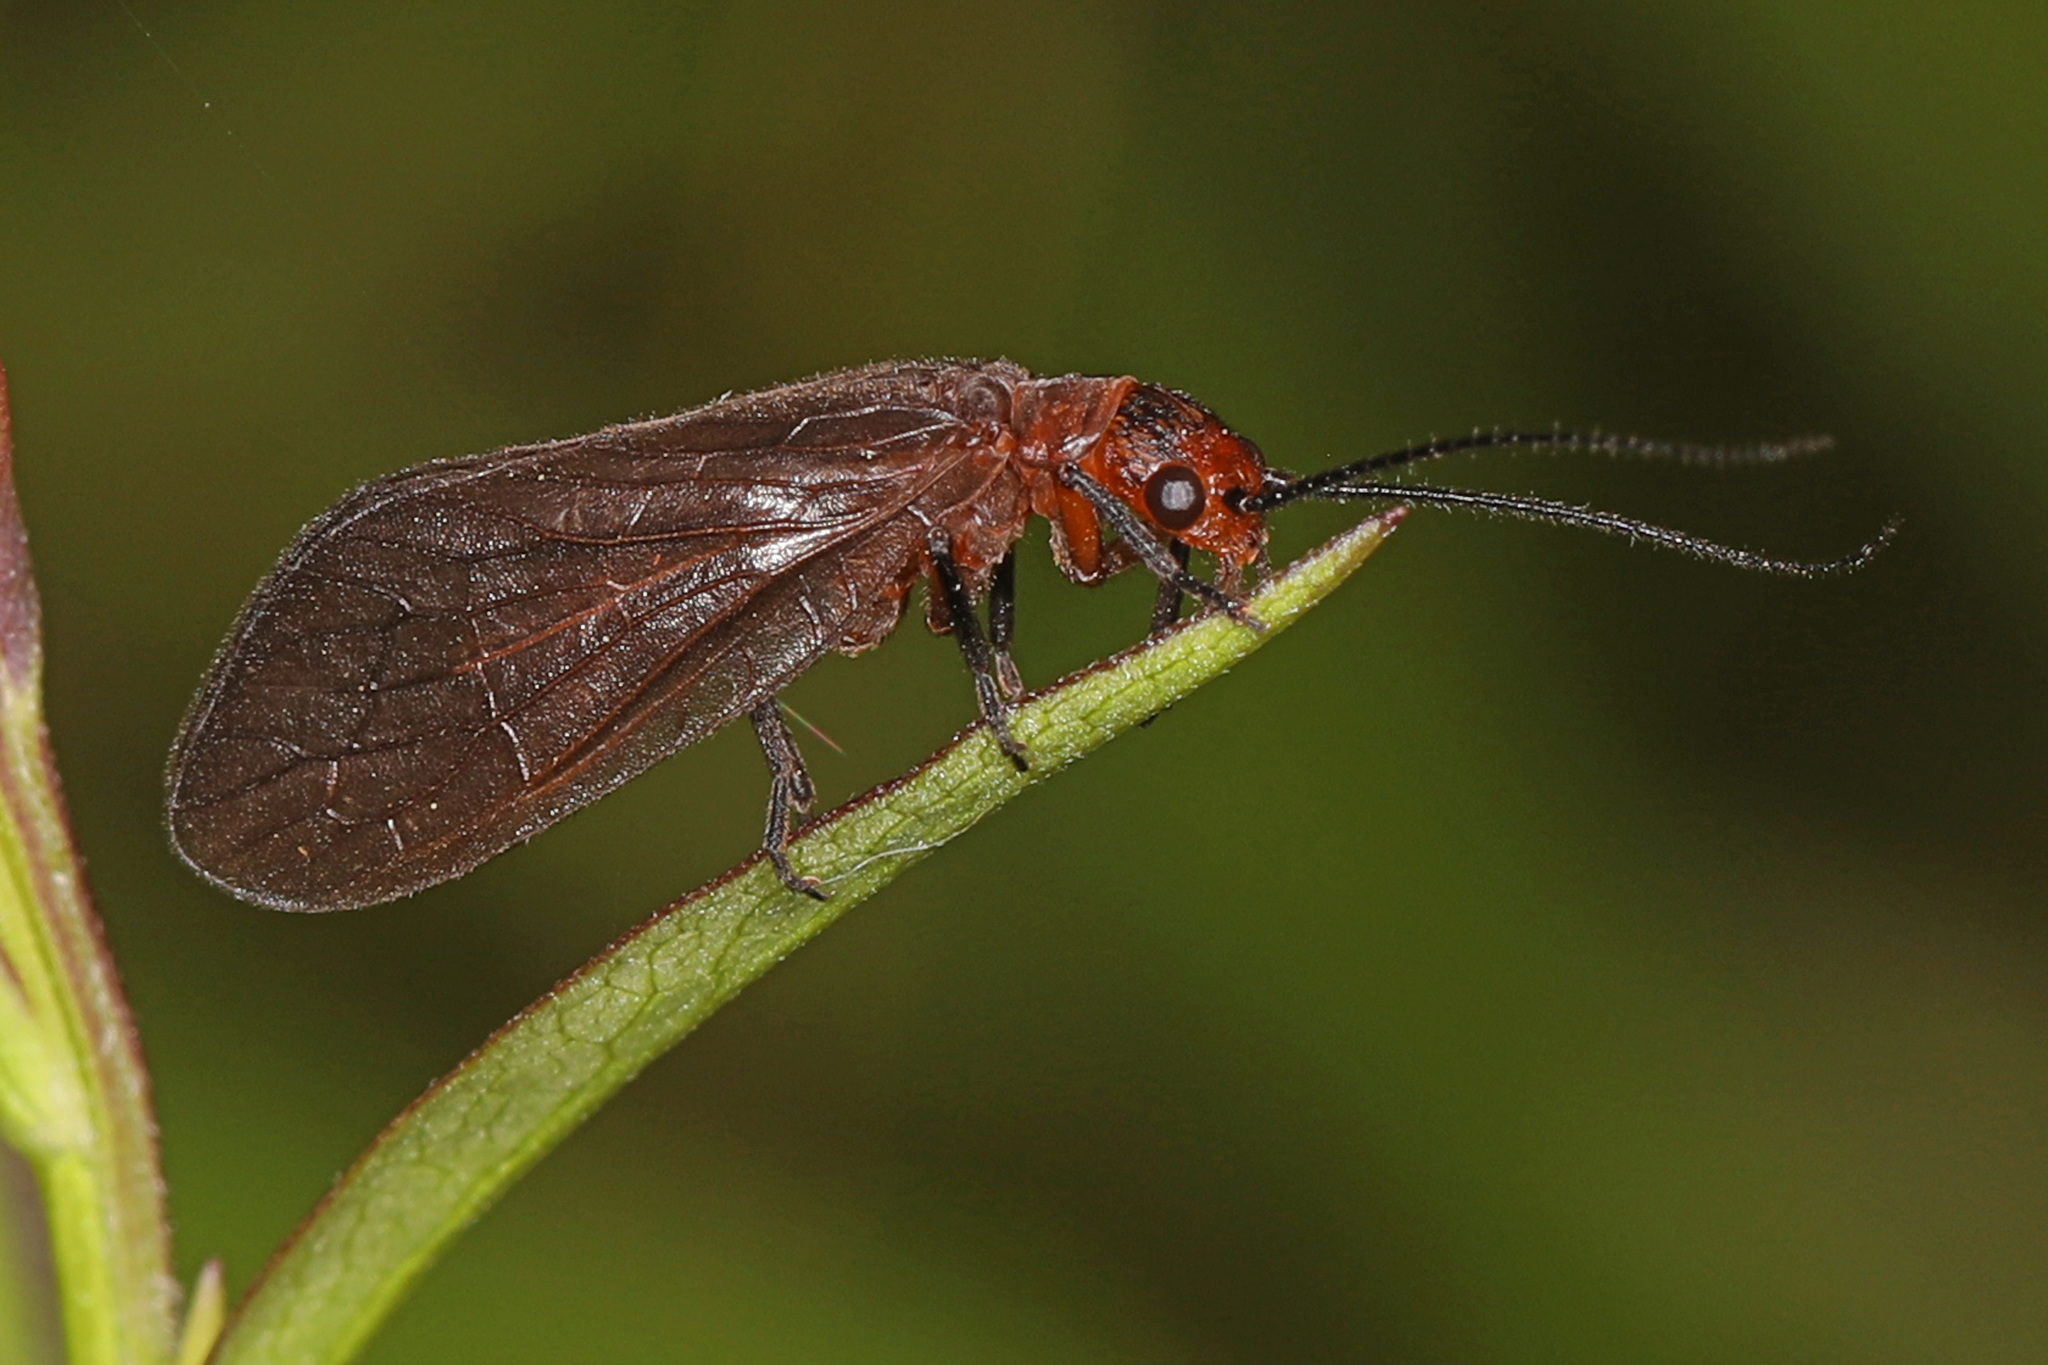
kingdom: Animalia
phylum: Arthropoda
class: Insecta
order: Megaloptera
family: Sialidae
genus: Protosialis
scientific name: Protosialis americana
